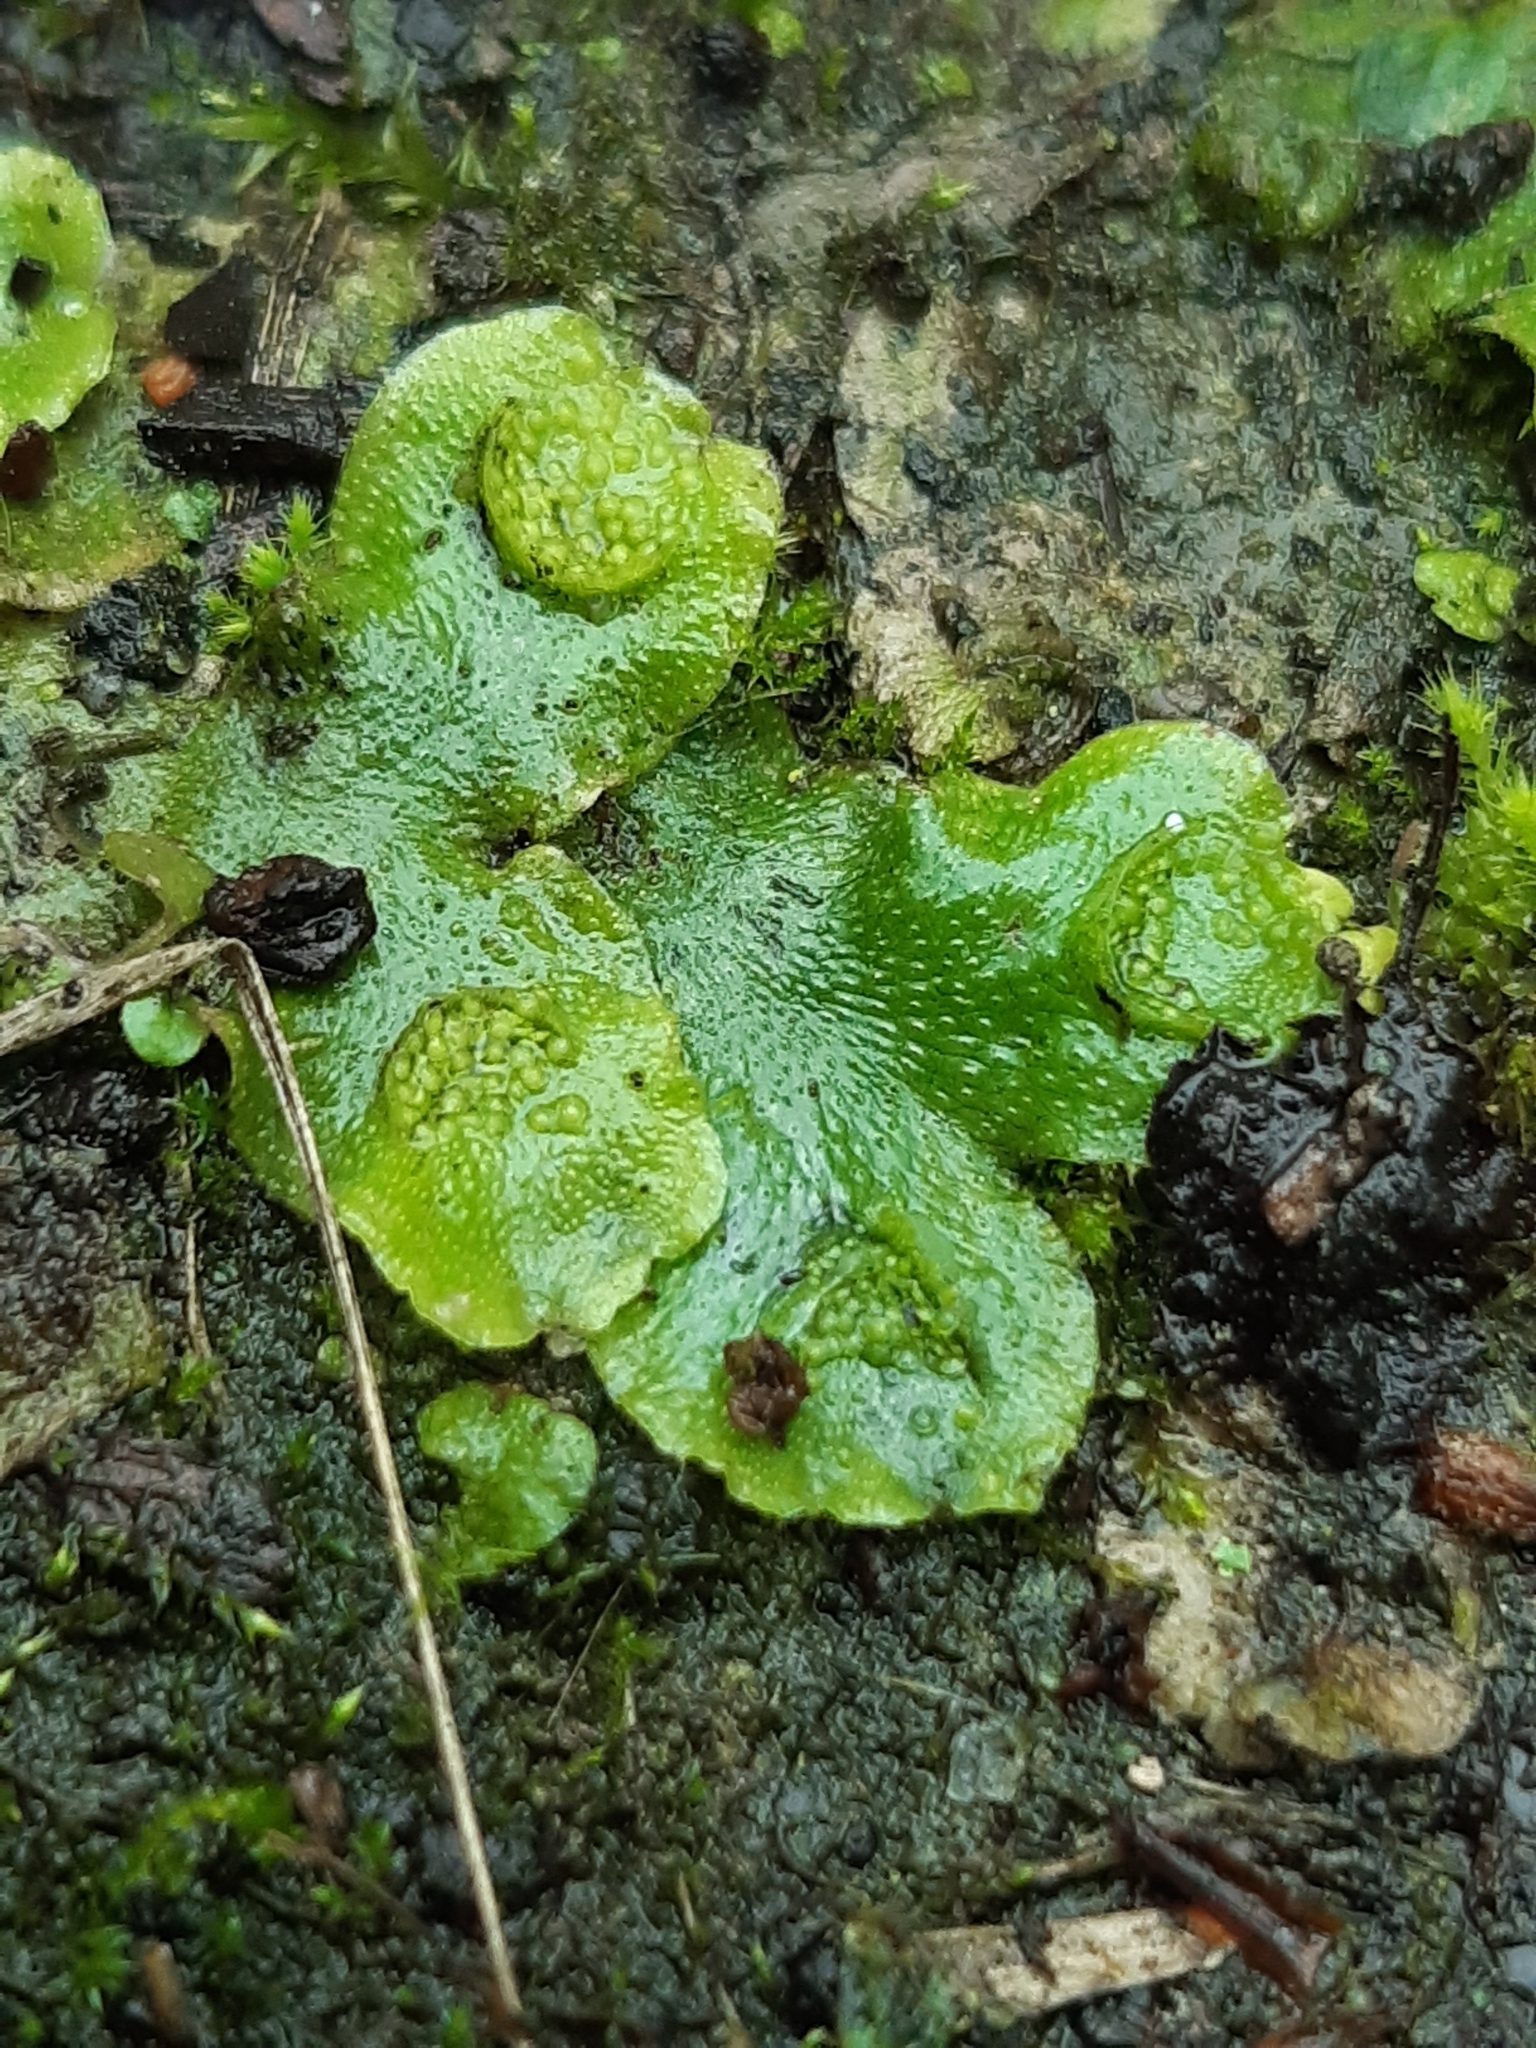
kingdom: Plantae
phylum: Marchantiophyta
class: Marchantiopsida
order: Lunulariales
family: Lunulariaceae
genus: Lunularia
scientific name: Lunularia cruciata
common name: Crescent-cup liverwort
